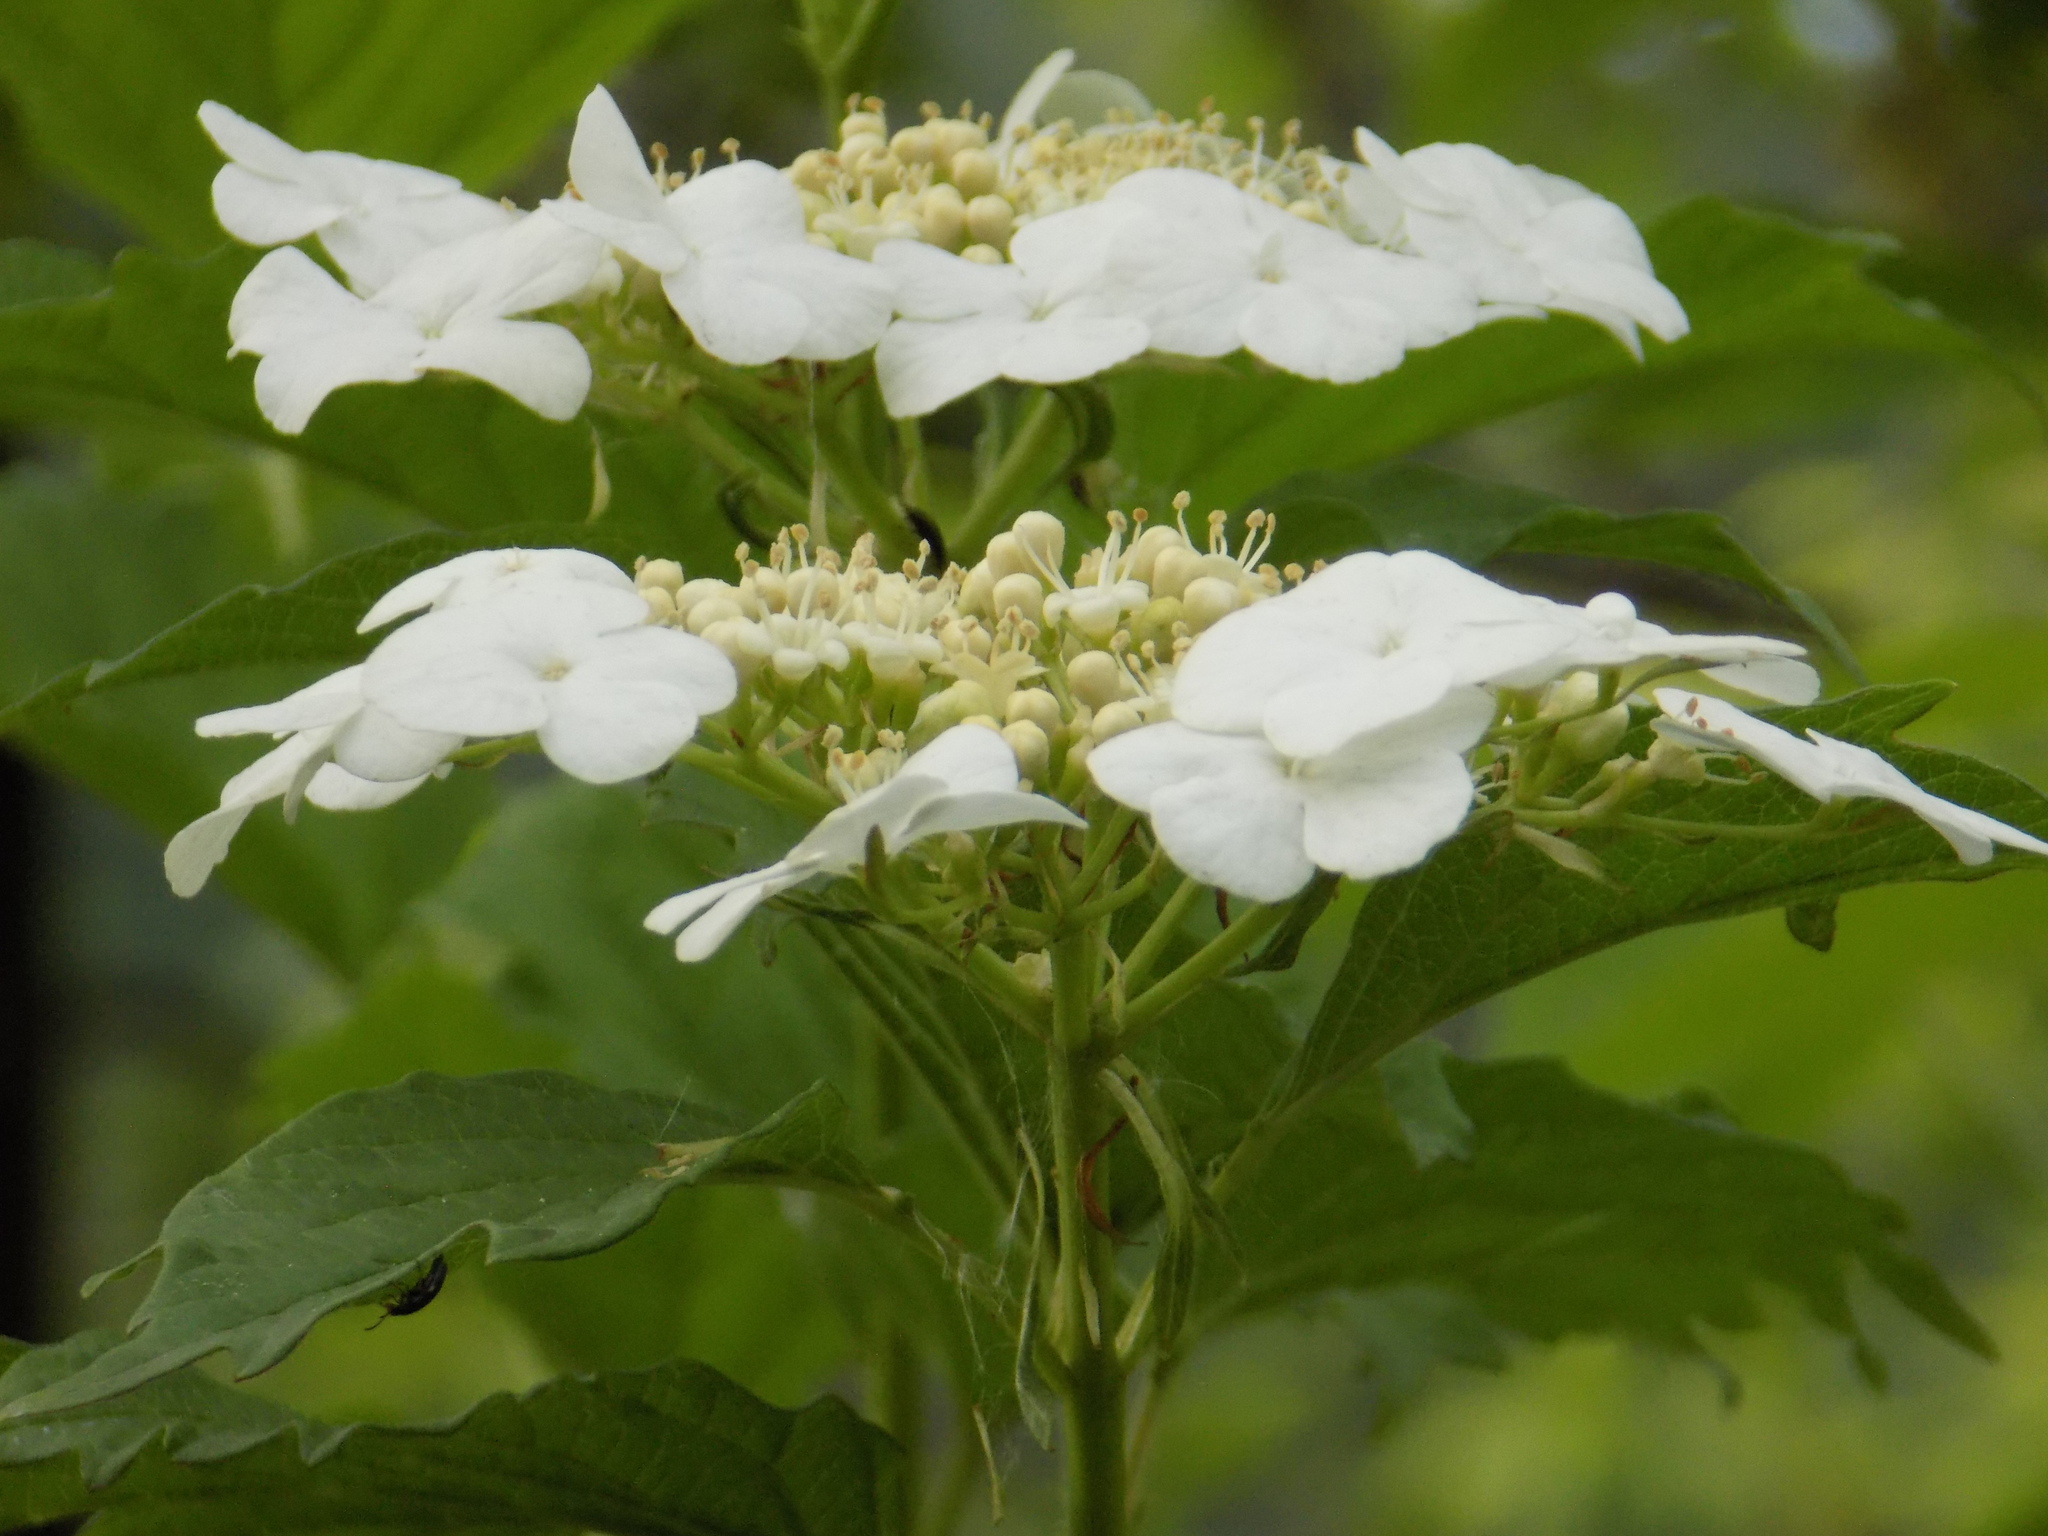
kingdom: Plantae
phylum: Tracheophyta
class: Magnoliopsida
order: Dipsacales
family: Viburnaceae
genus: Viburnum
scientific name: Viburnum opulus
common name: Guelder-rose
